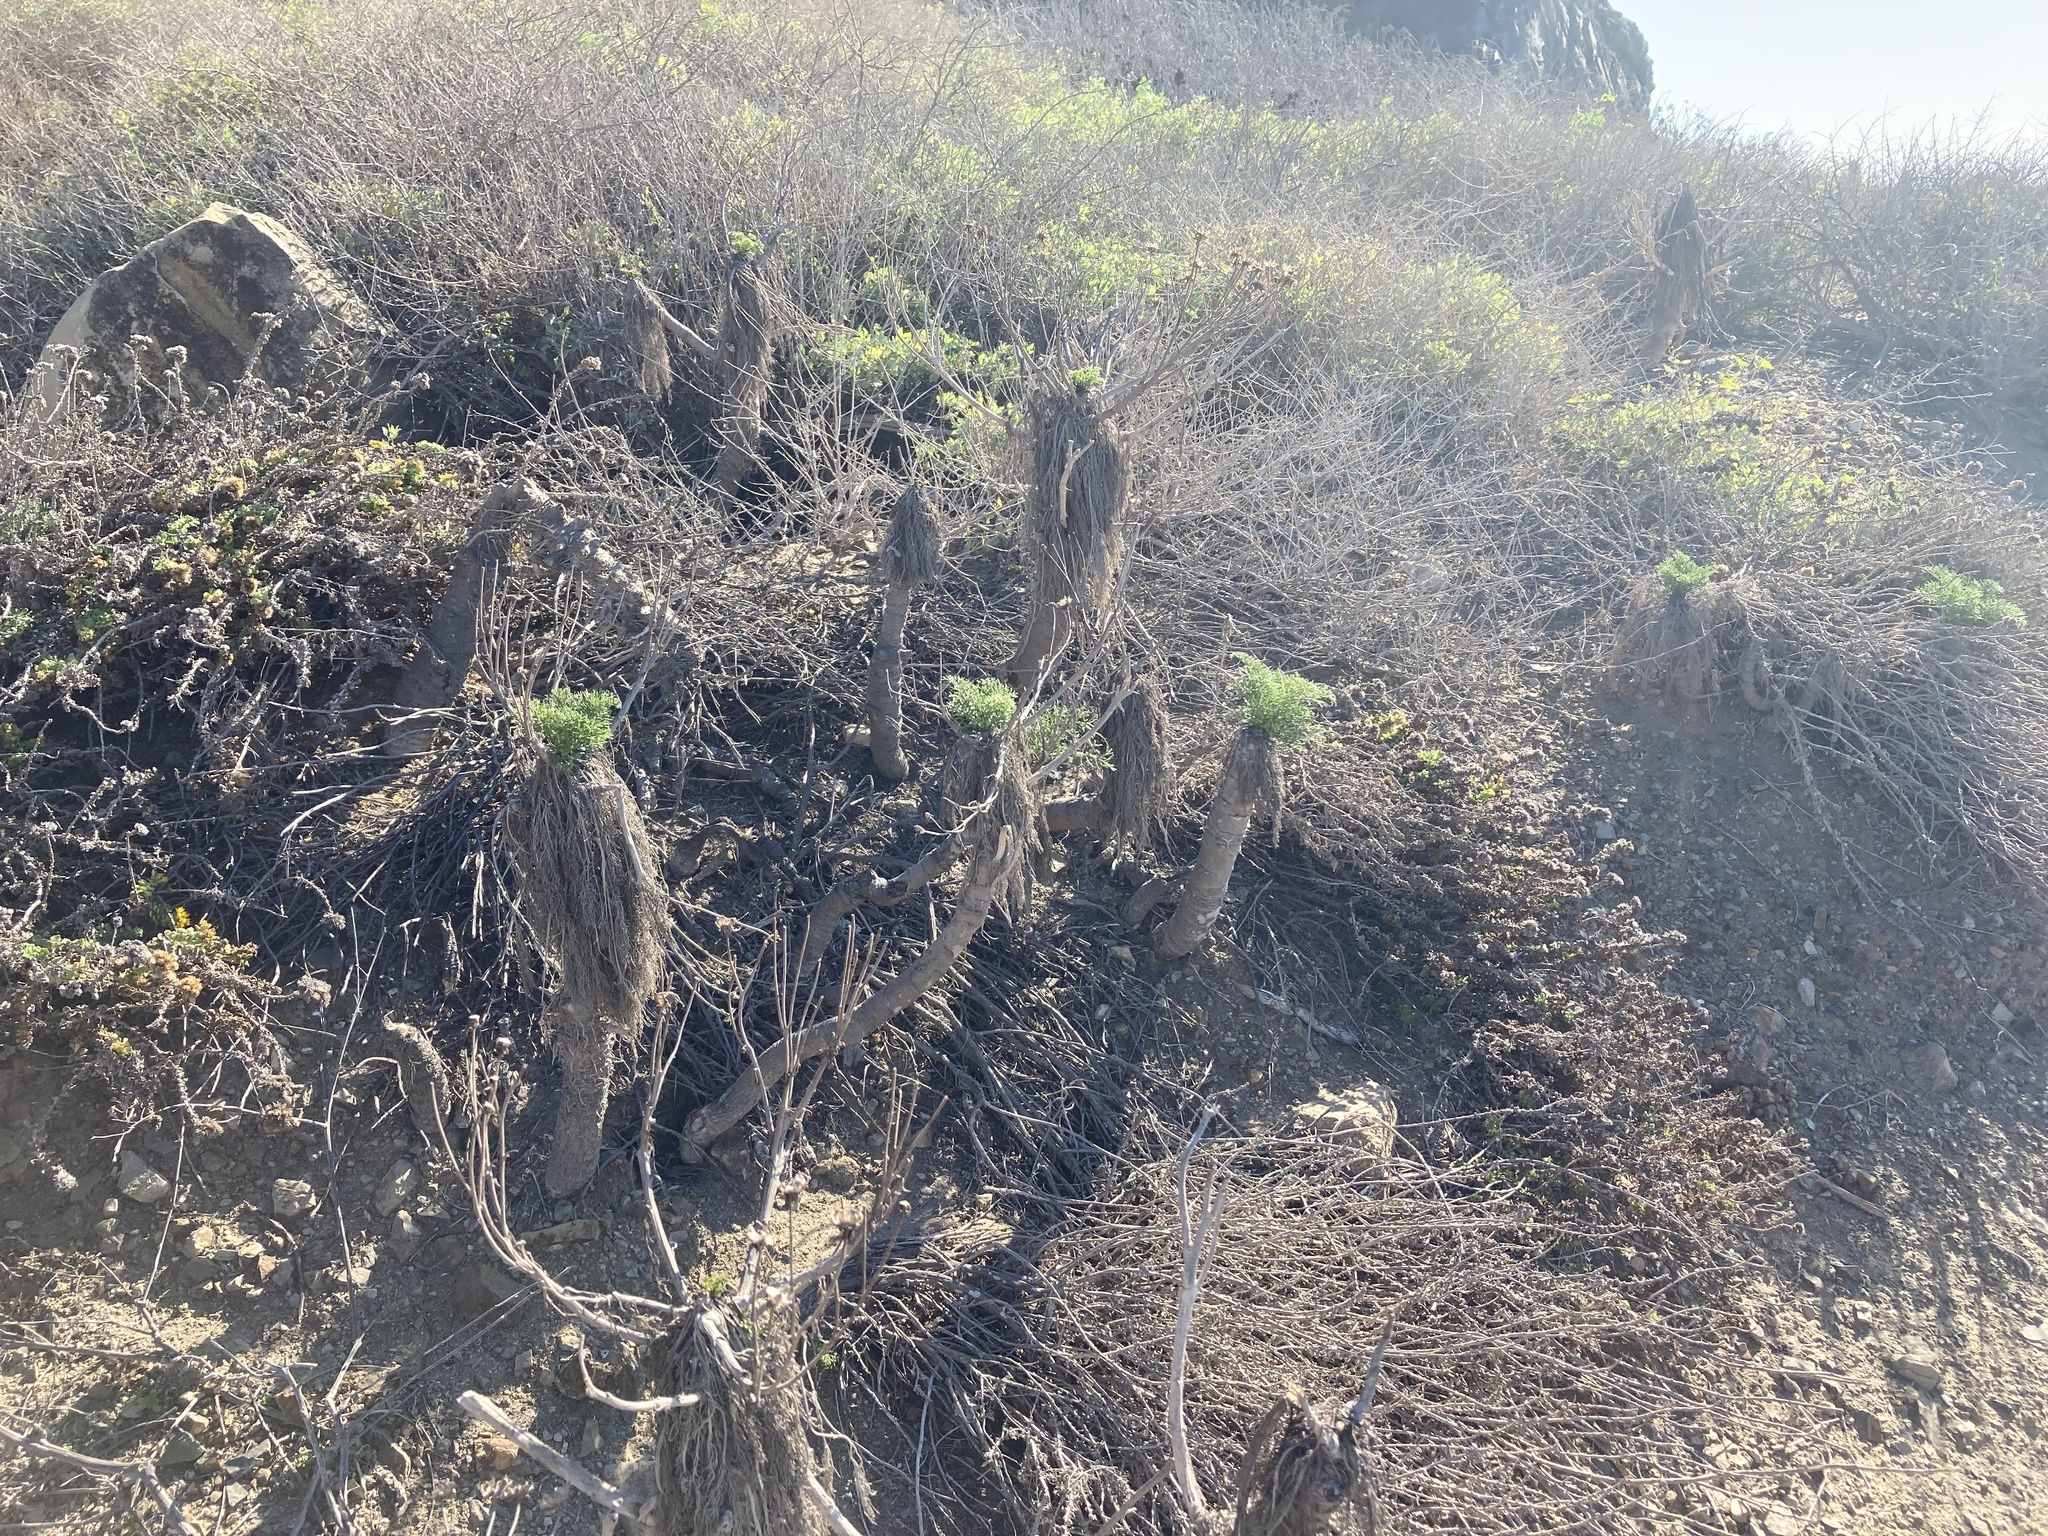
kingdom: Plantae
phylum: Tracheophyta
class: Magnoliopsida
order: Asterales
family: Asteraceae
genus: Coreopsis
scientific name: Coreopsis gigantea
